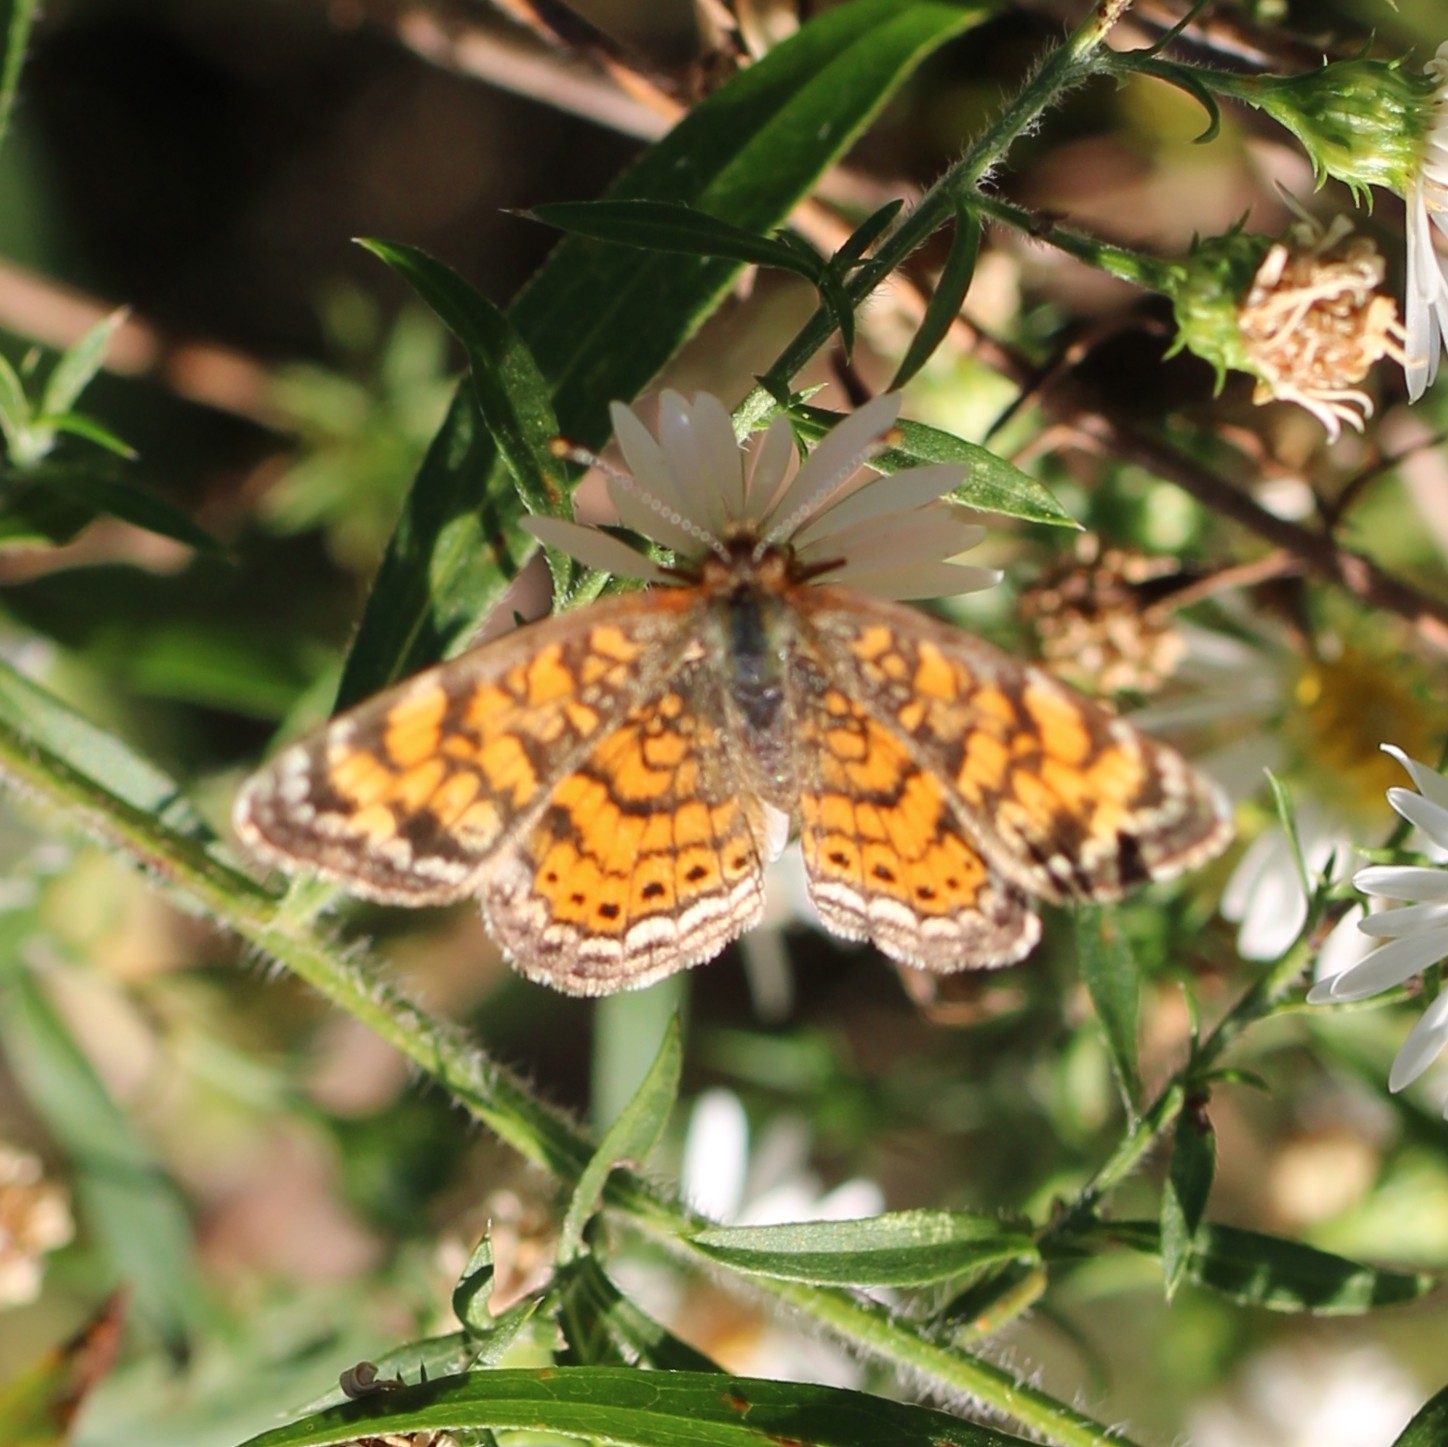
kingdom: Animalia
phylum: Arthropoda
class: Insecta
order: Lepidoptera
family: Nymphalidae
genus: Phyciodes
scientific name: Phyciodes tharos
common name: Pearl crescent
